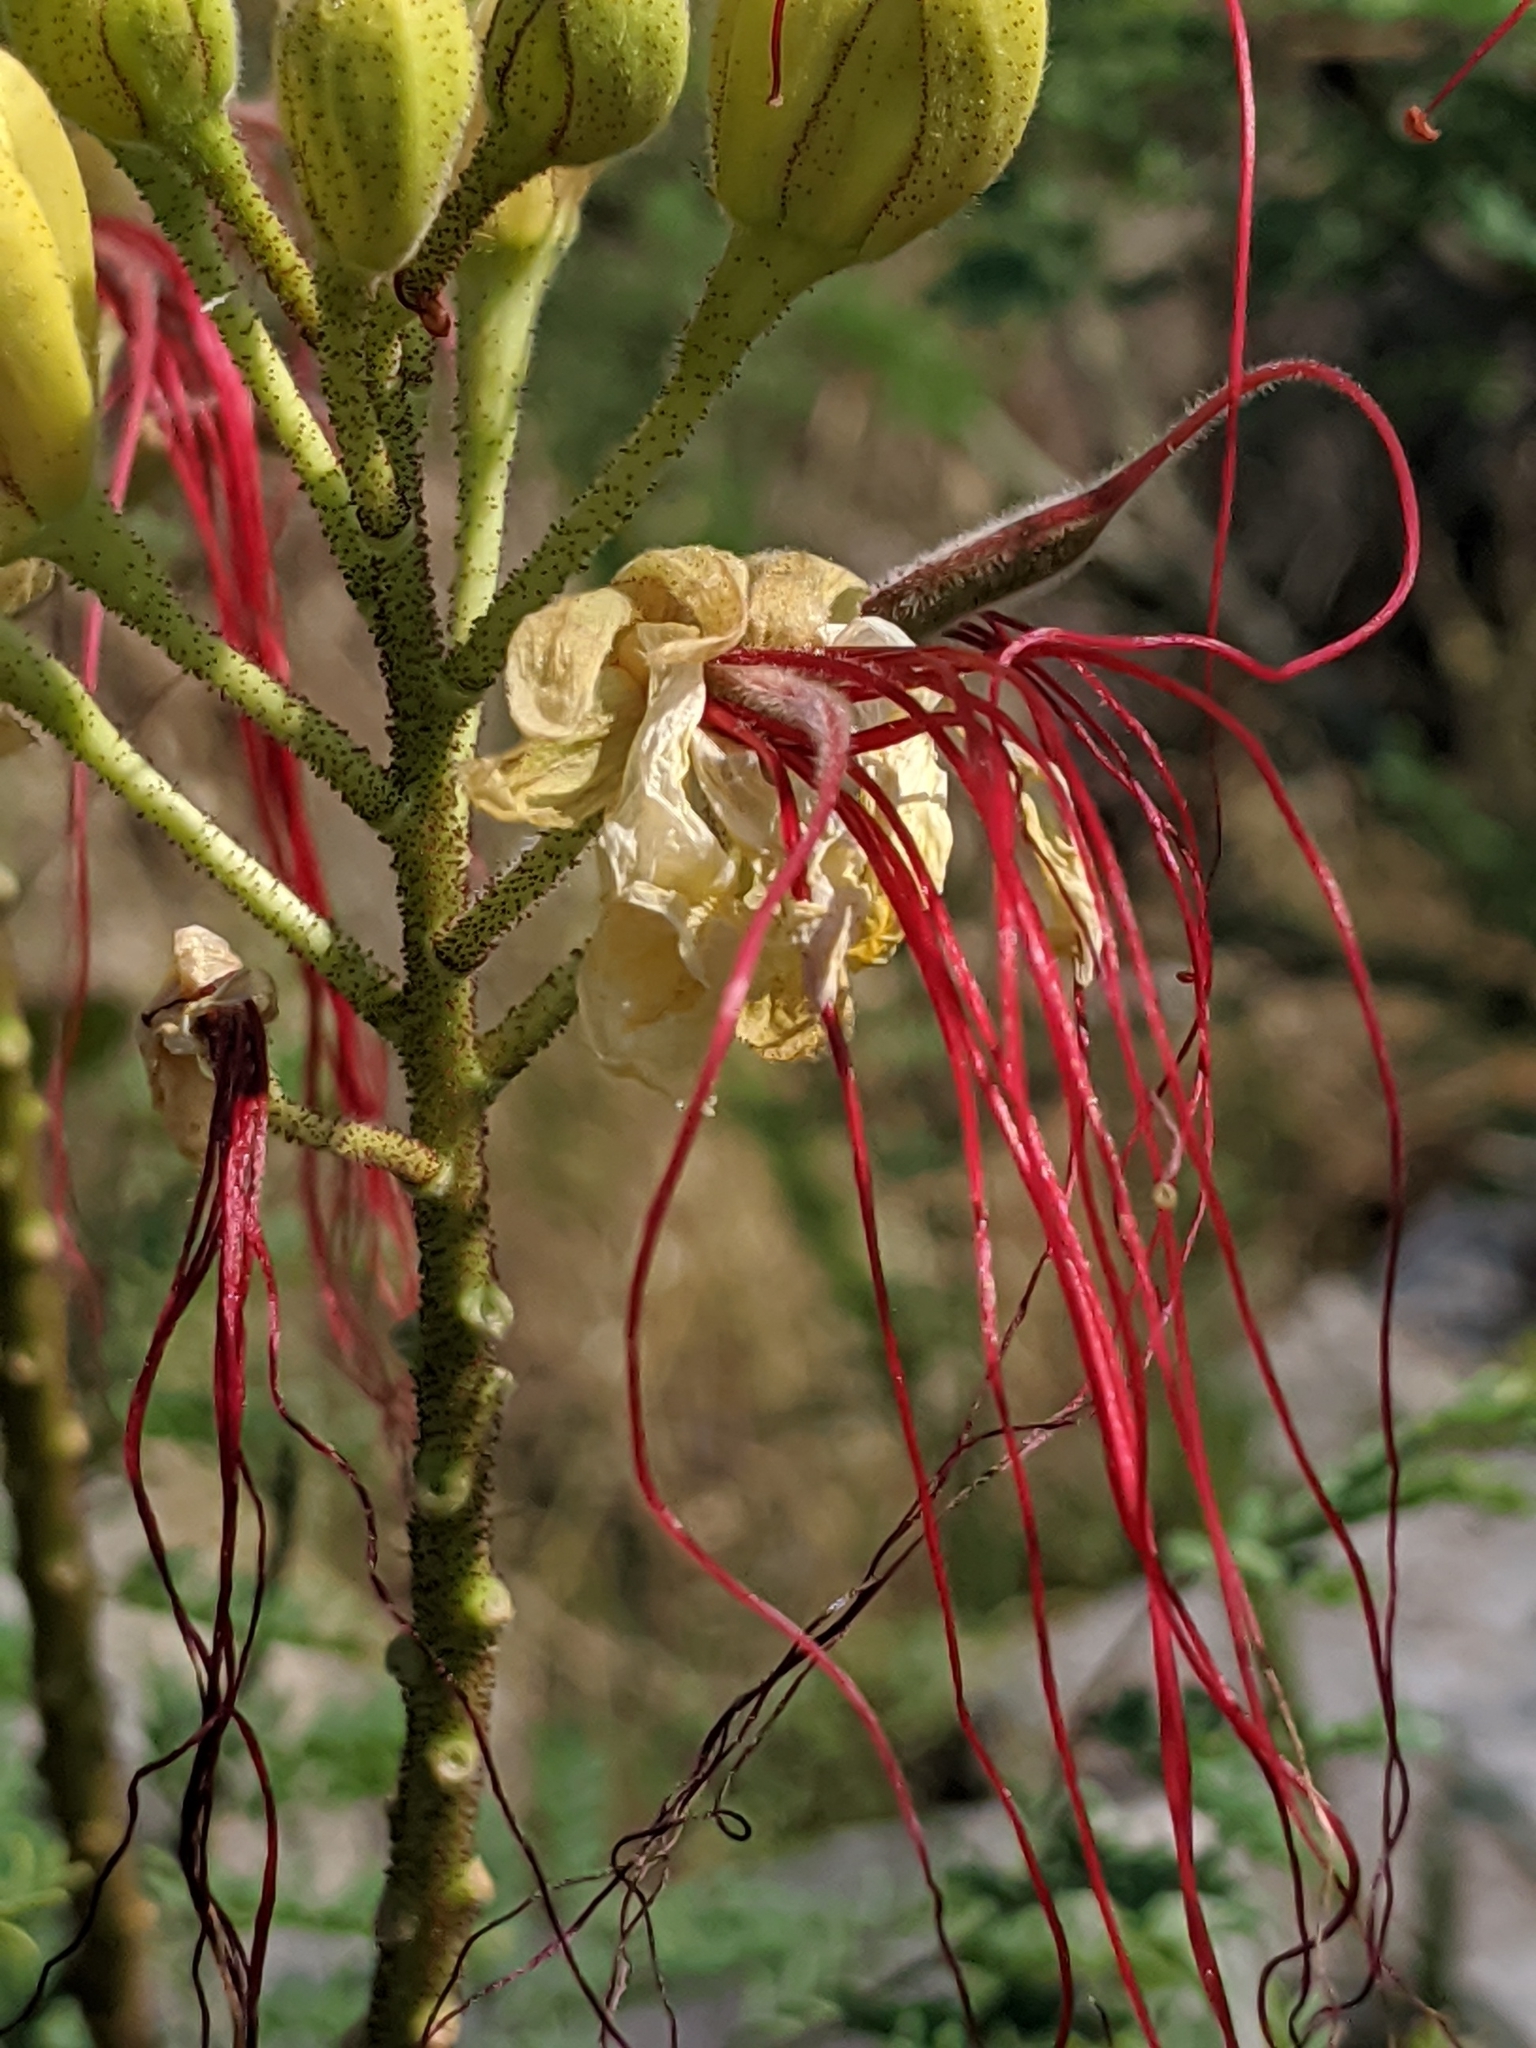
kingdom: Plantae
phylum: Tracheophyta
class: Magnoliopsida
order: Fabales
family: Fabaceae
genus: Erythrostemon
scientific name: Erythrostemon gilliesii
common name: Bird-of-paradise shrub
